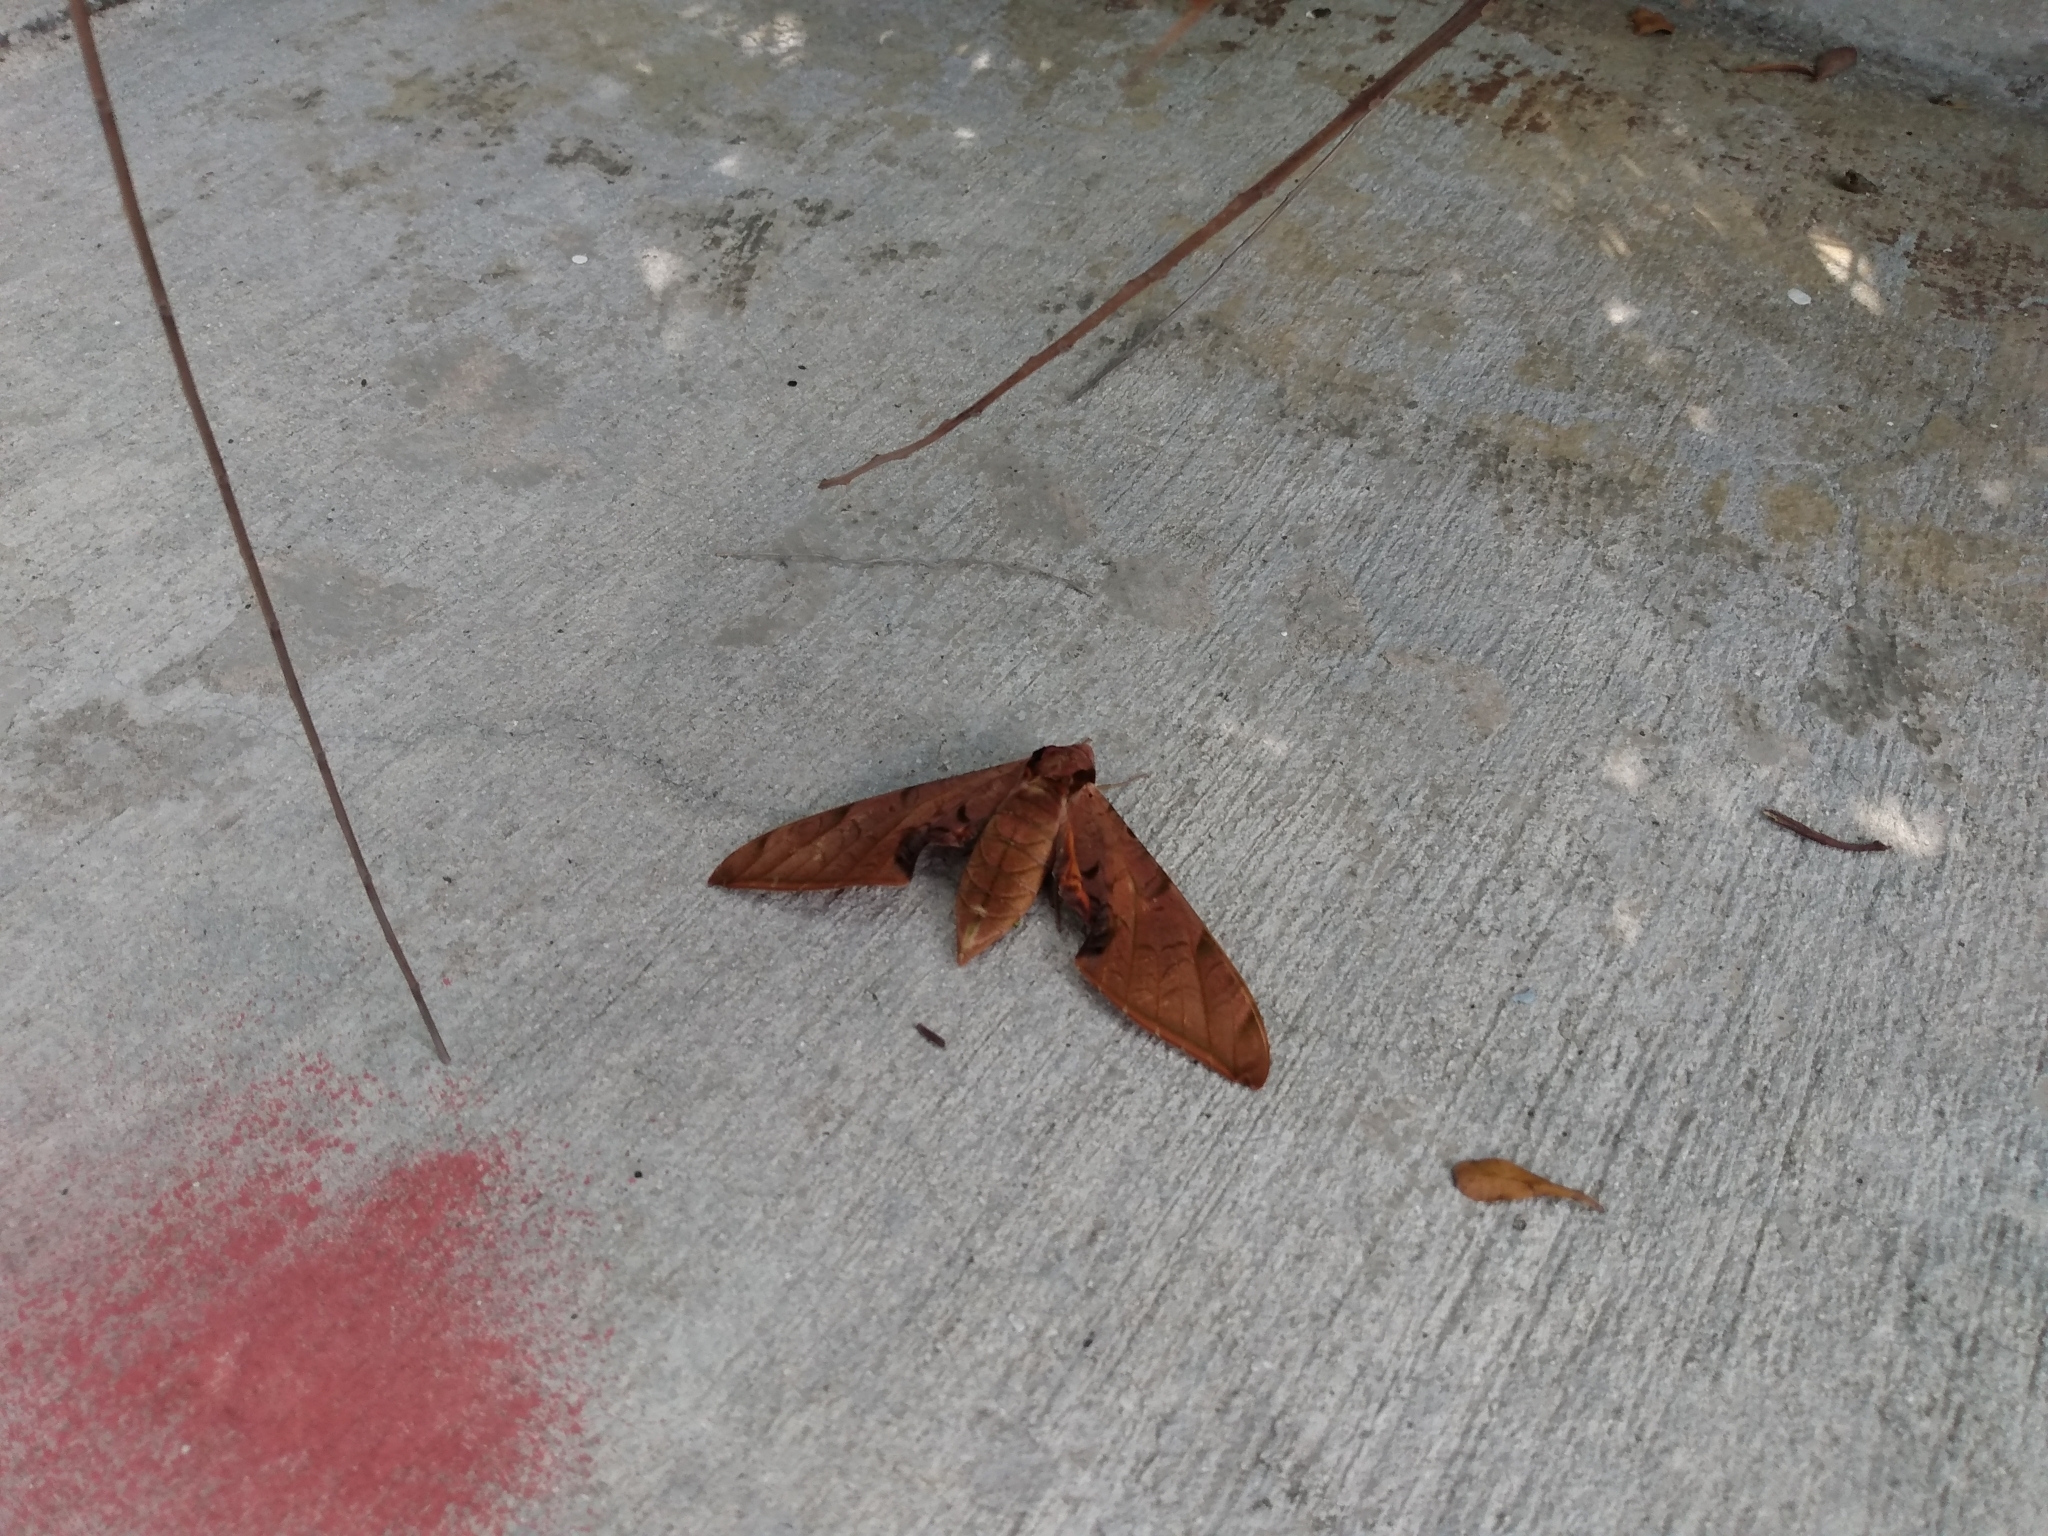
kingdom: Animalia
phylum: Arthropoda
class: Insecta
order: Lepidoptera
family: Sphingidae
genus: Protambulyx
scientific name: Protambulyx strigilis
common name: Streaked sphinx
